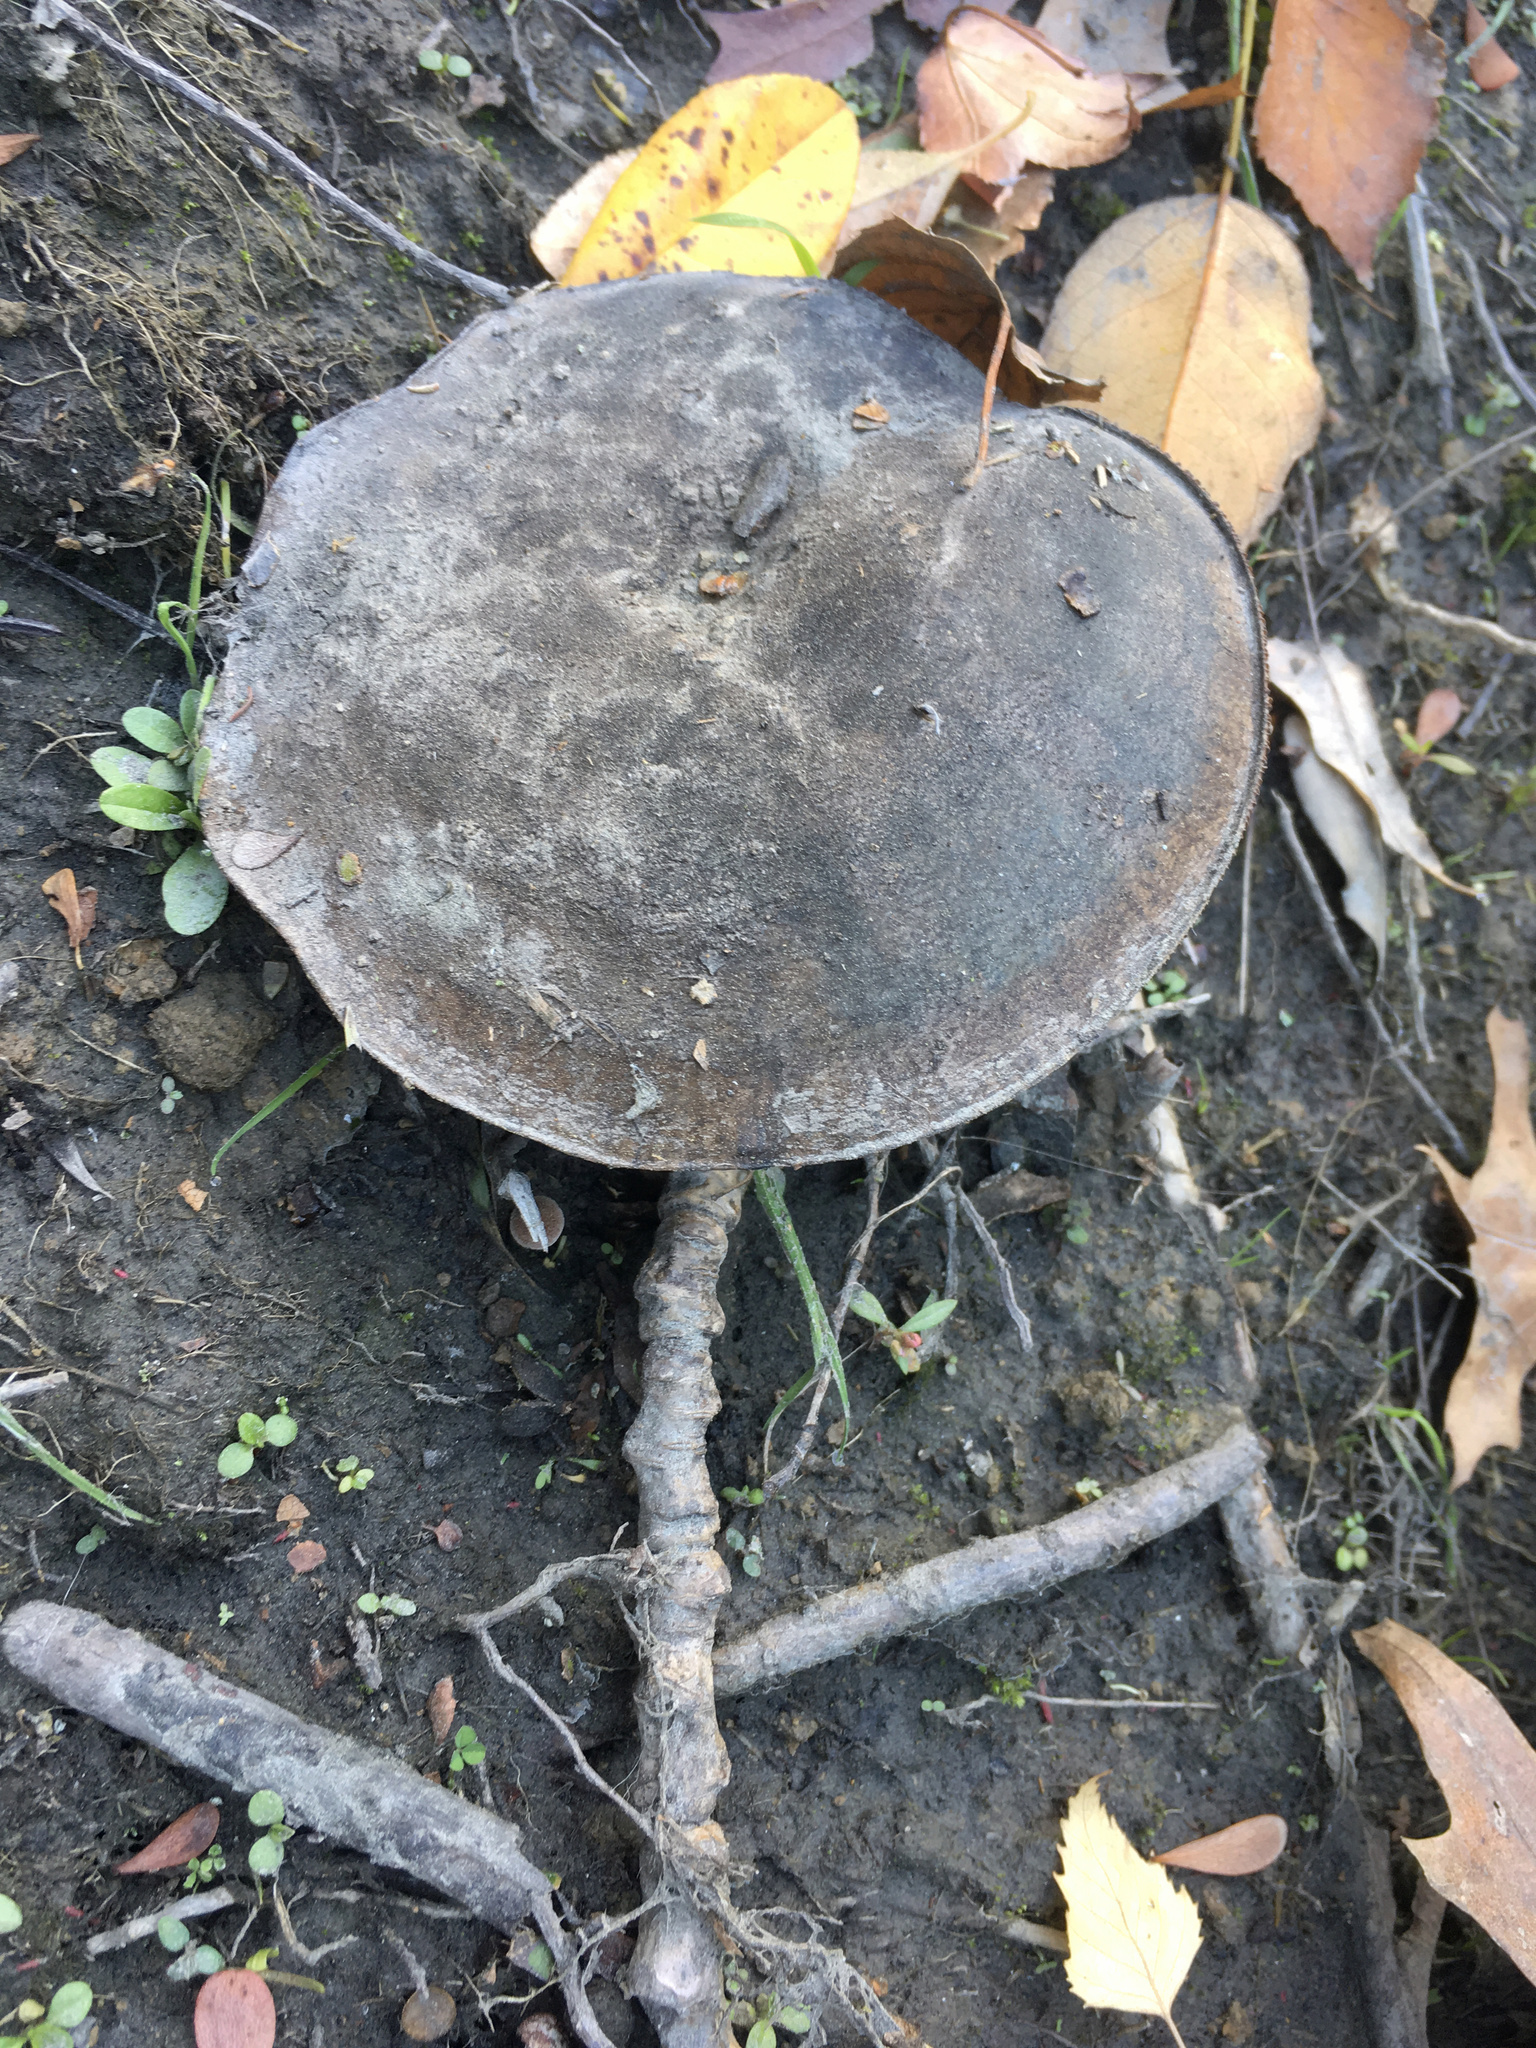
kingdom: Fungi
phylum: Basidiomycota
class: Agaricomycetes
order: Russulales
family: Russulaceae
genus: Lactarius
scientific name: Lactarius turpis
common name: Ugly milk-cap
